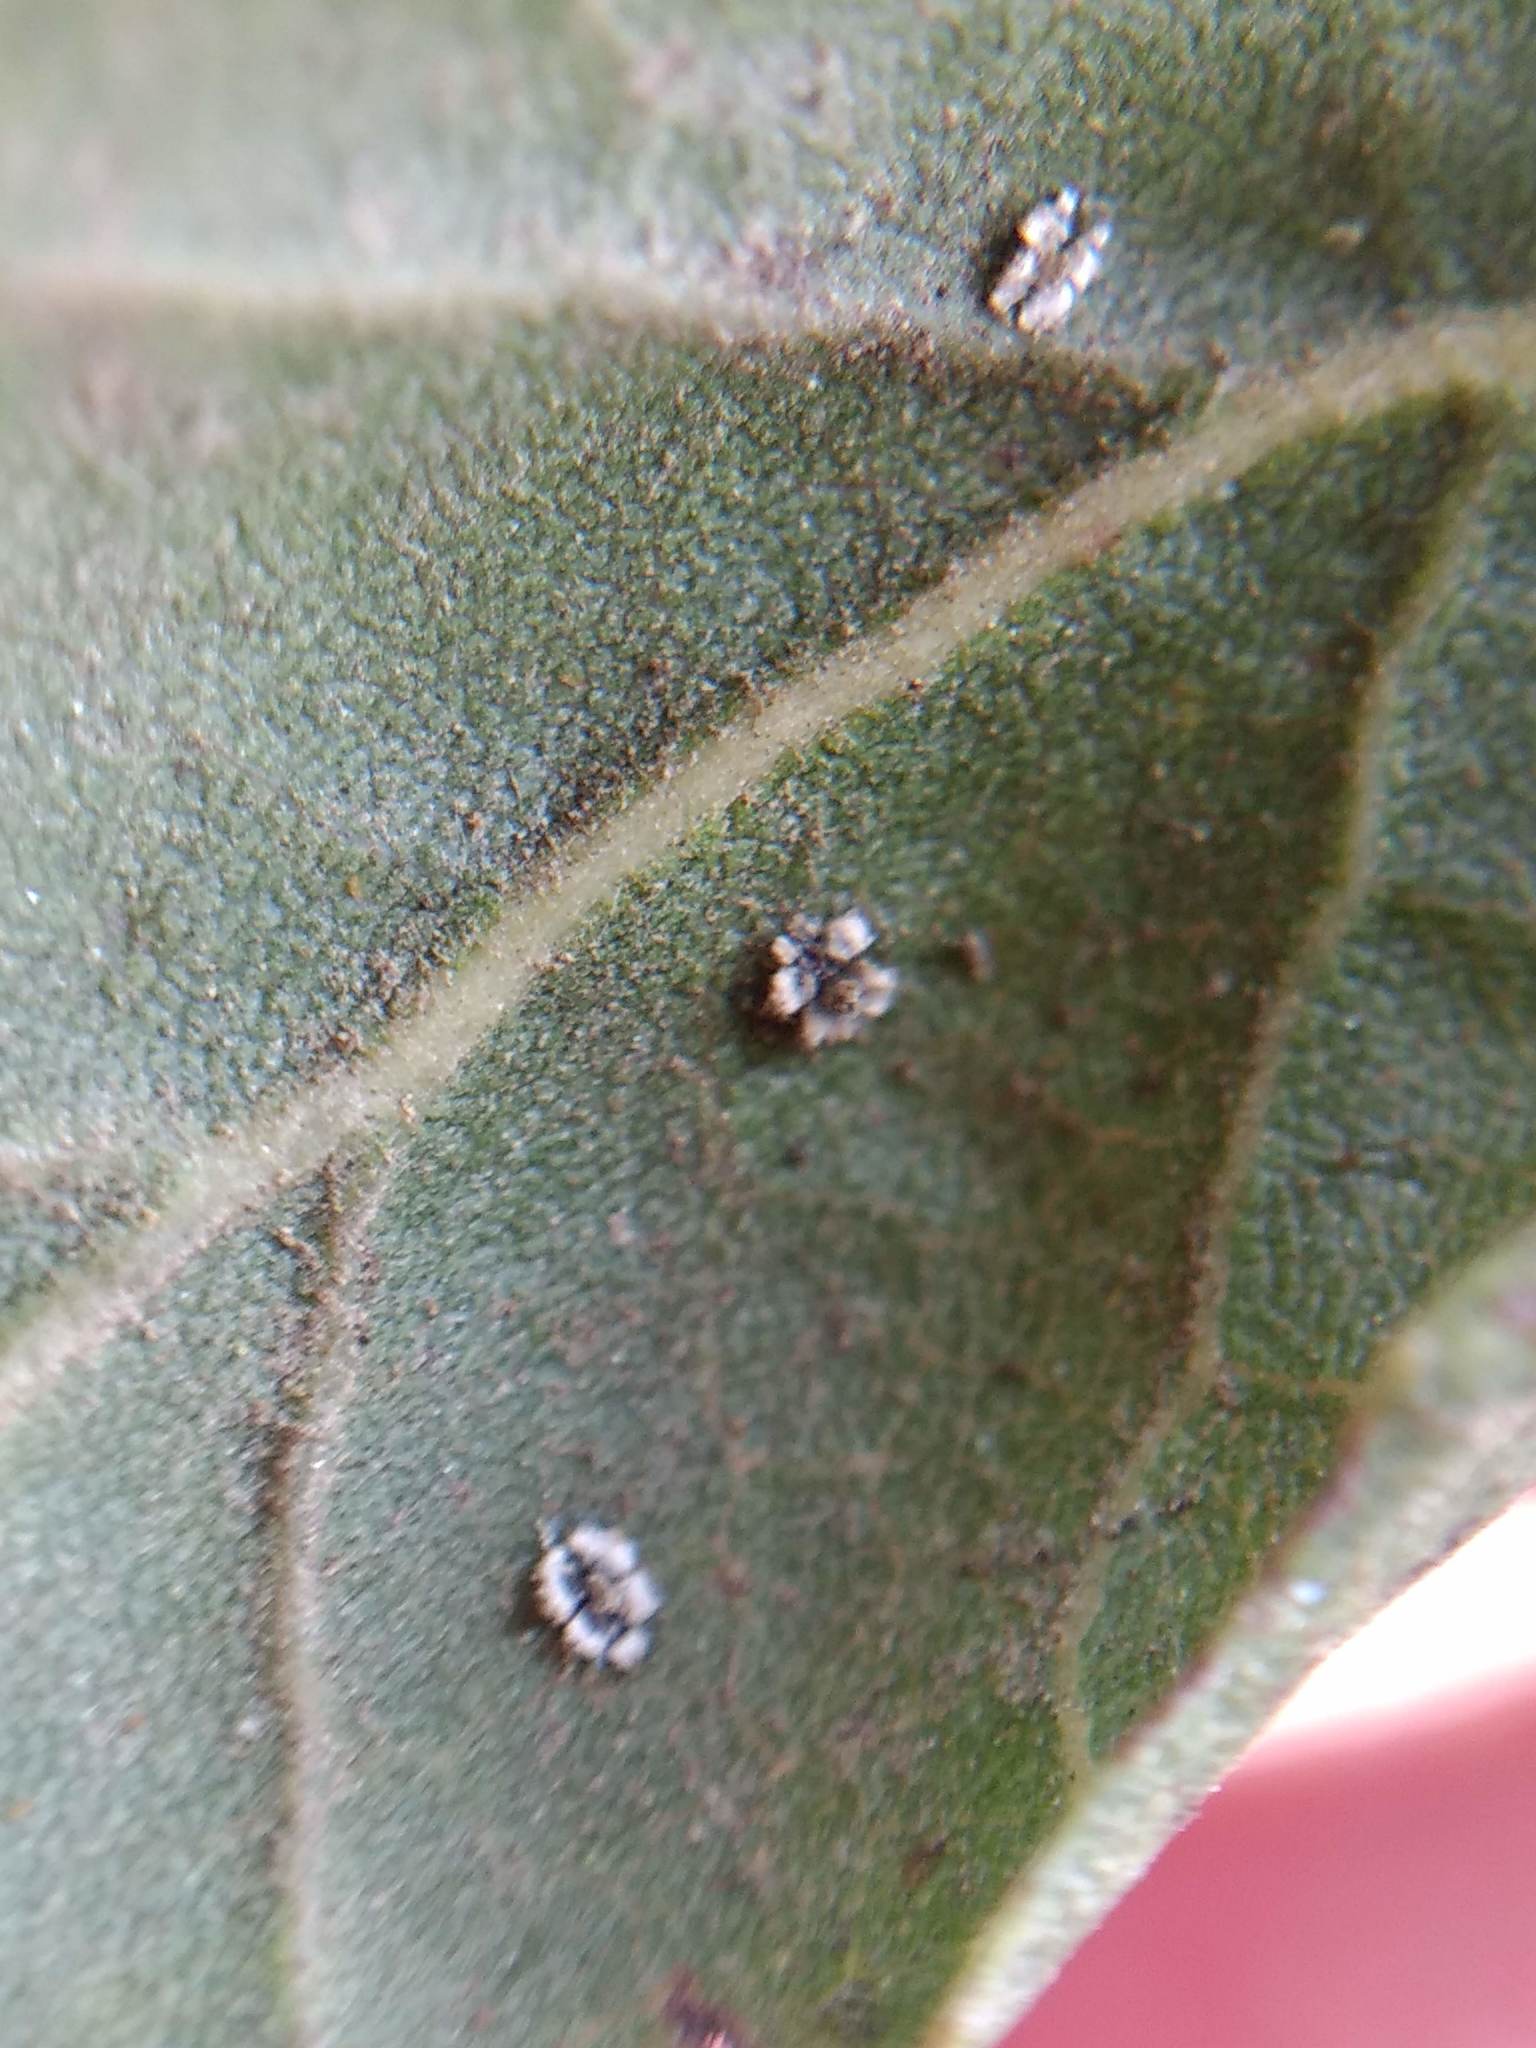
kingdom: Animalia
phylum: Arthropoda
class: Insecta
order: Hemiptera
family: Aleyrodidae
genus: Aleuroplatus
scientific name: Aleuroplatus coronata
